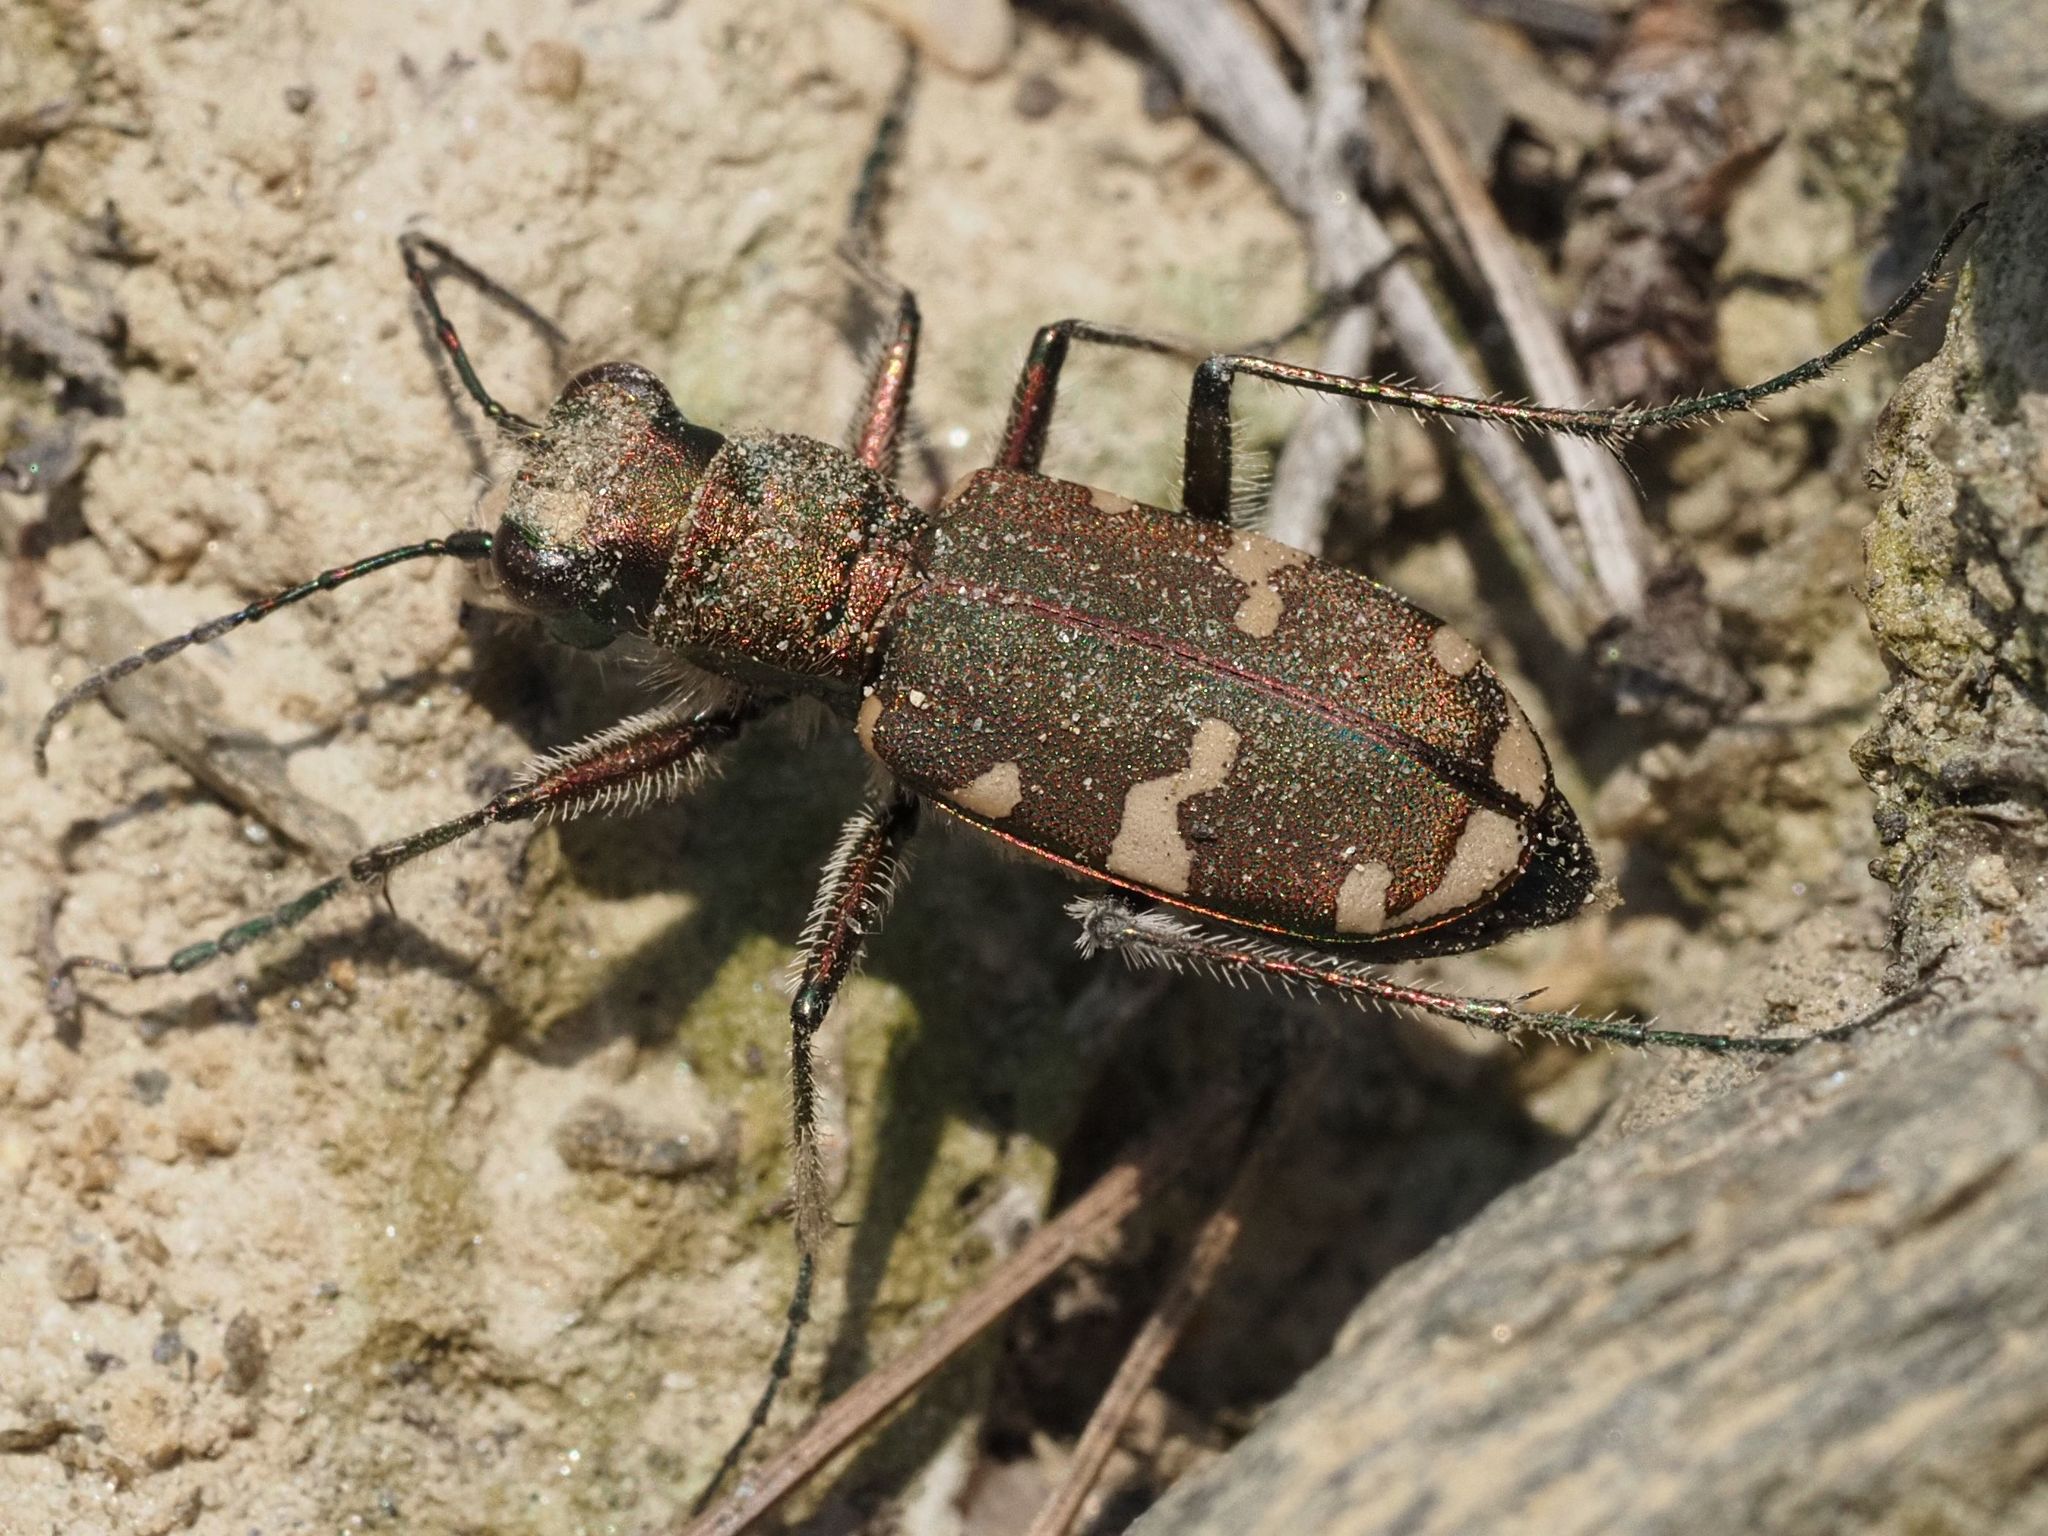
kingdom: Animalia
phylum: Arthropoda
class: Insecta
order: Coleoptera
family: Carabidae
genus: Cicindela
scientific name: Cicindela sylvicola
